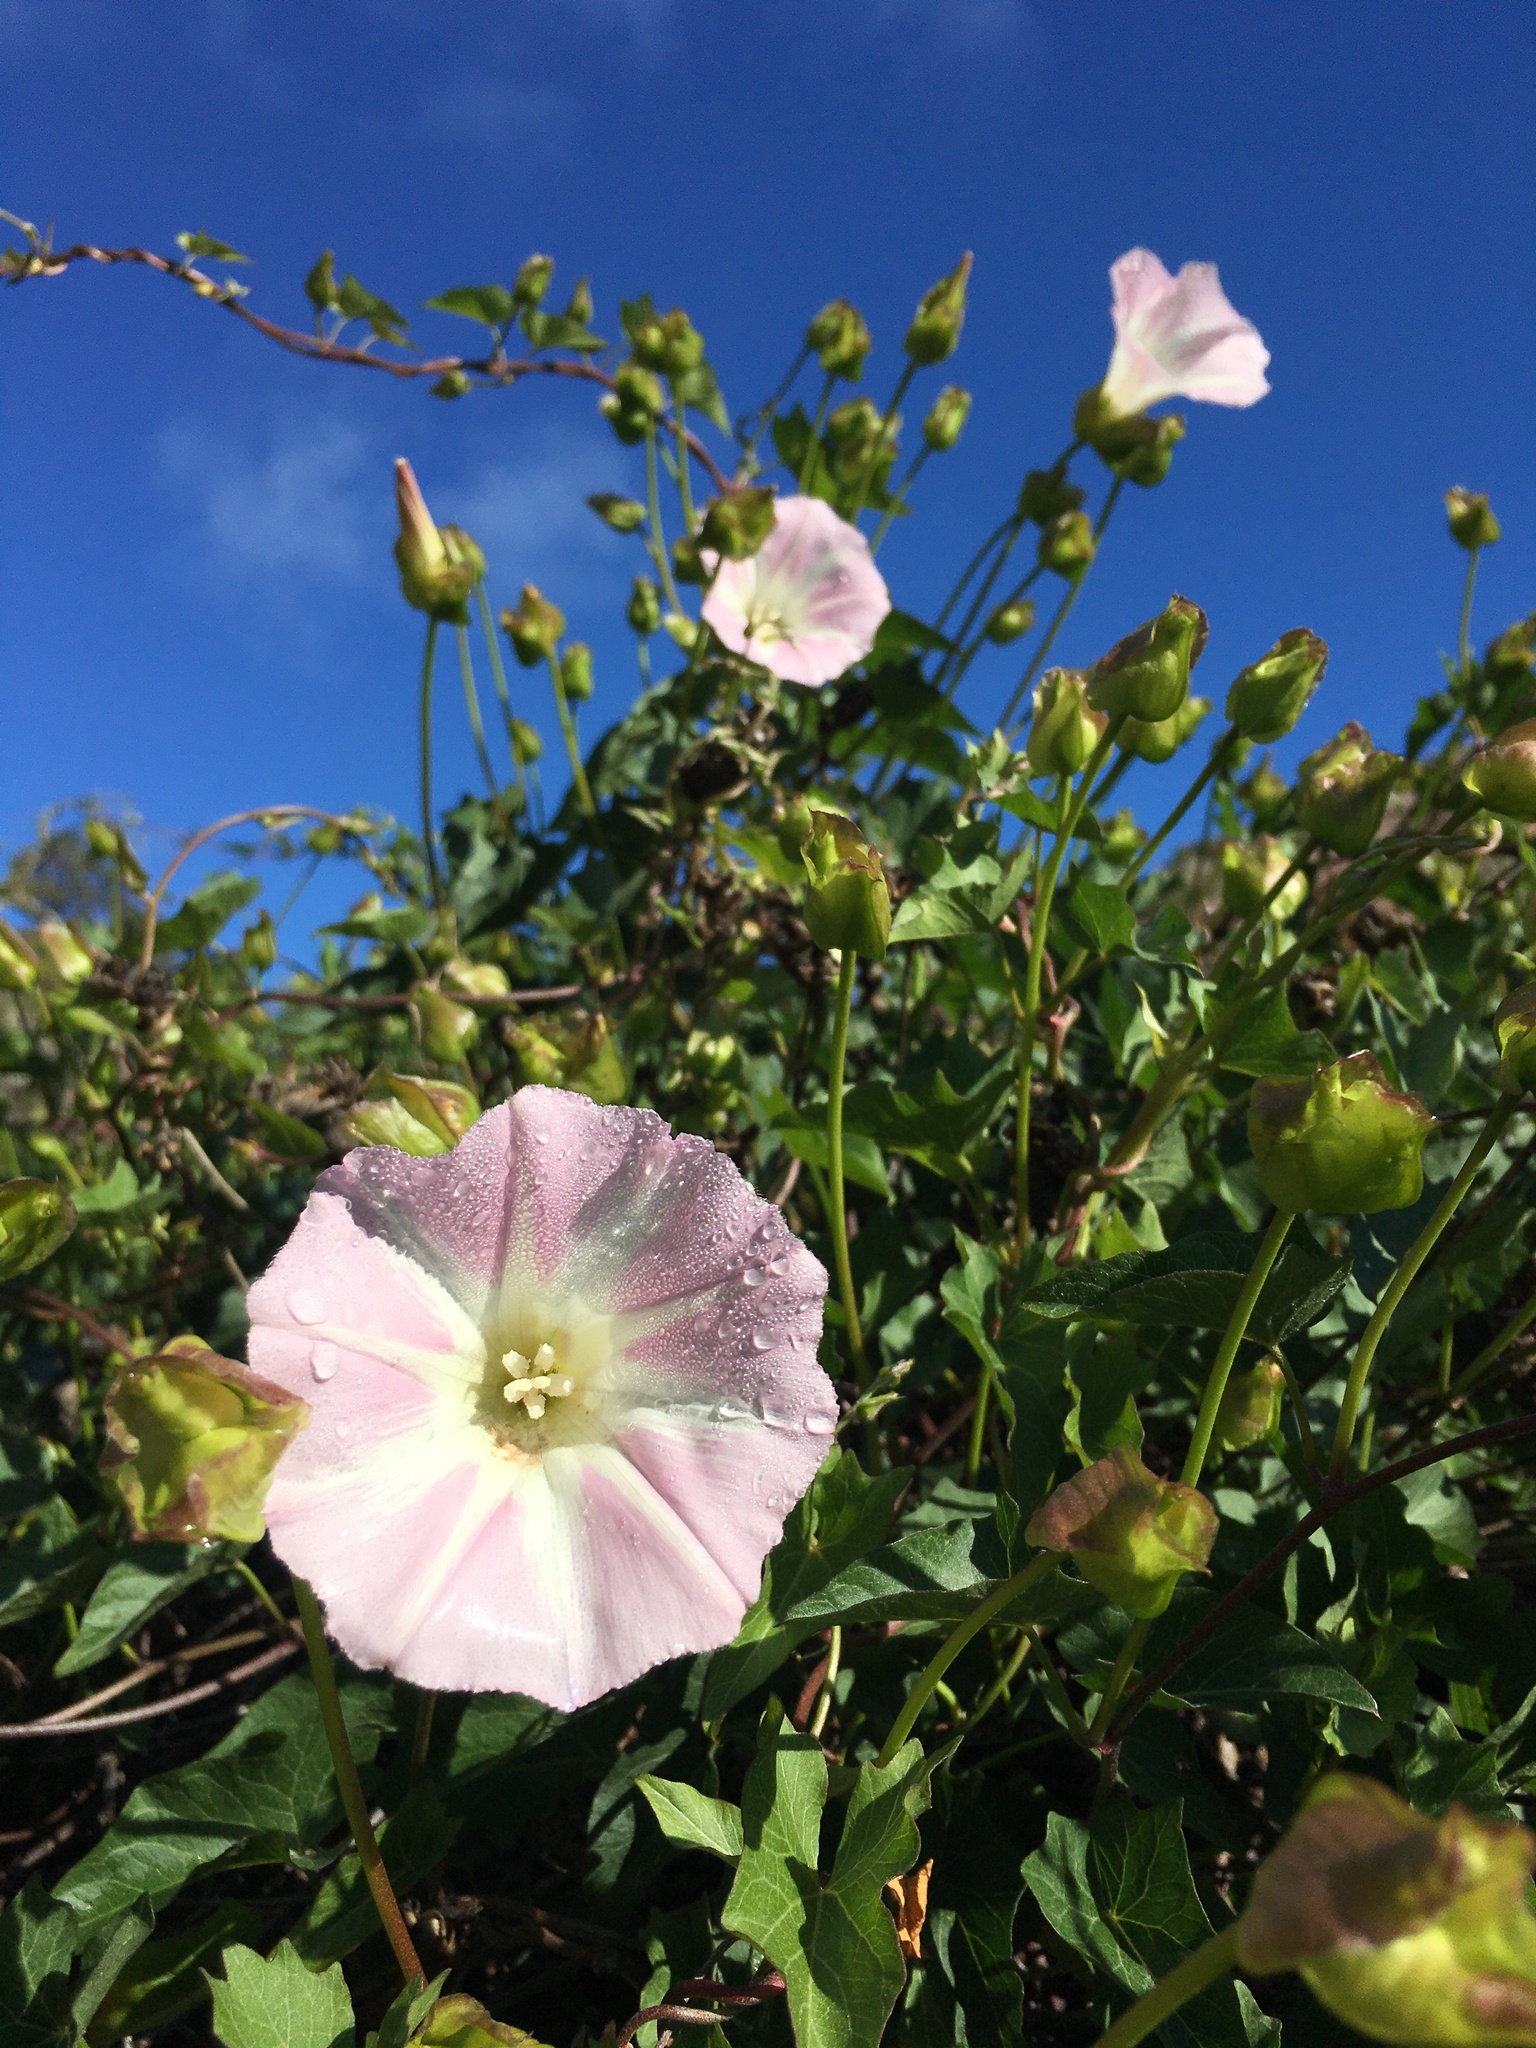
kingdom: Plantae
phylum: Tracheophyta
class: Magnoliopsida
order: Solanales
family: Convolvulaceae
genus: Calystegia
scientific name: Calystegia macrostegia
